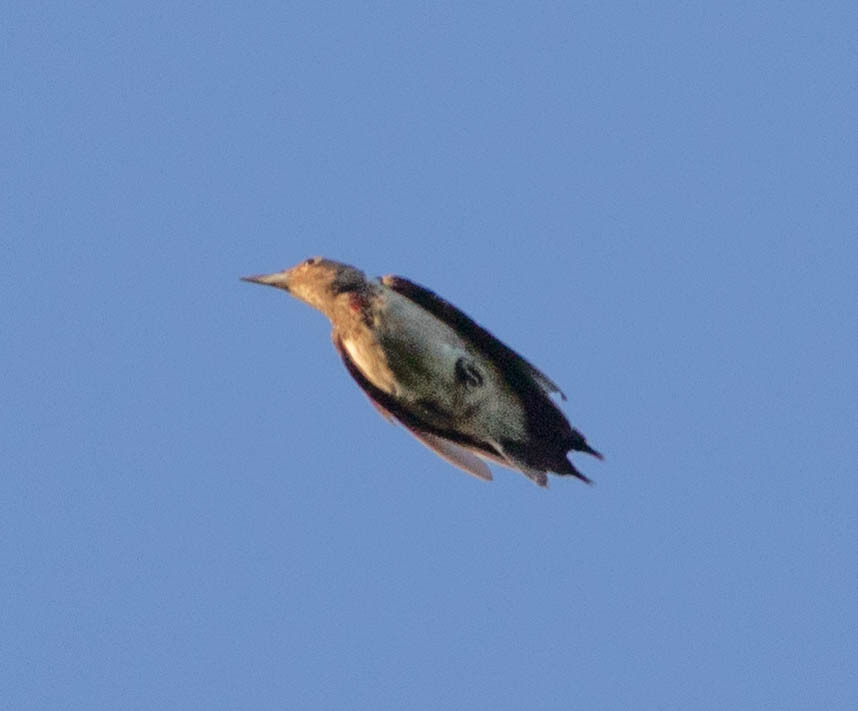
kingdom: Animalia
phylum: Chordata
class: Aves
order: Piciformes
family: Picidae
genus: Melanerpes
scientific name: Melanerpes erythrocephalus
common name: Red-headed woodpecker
